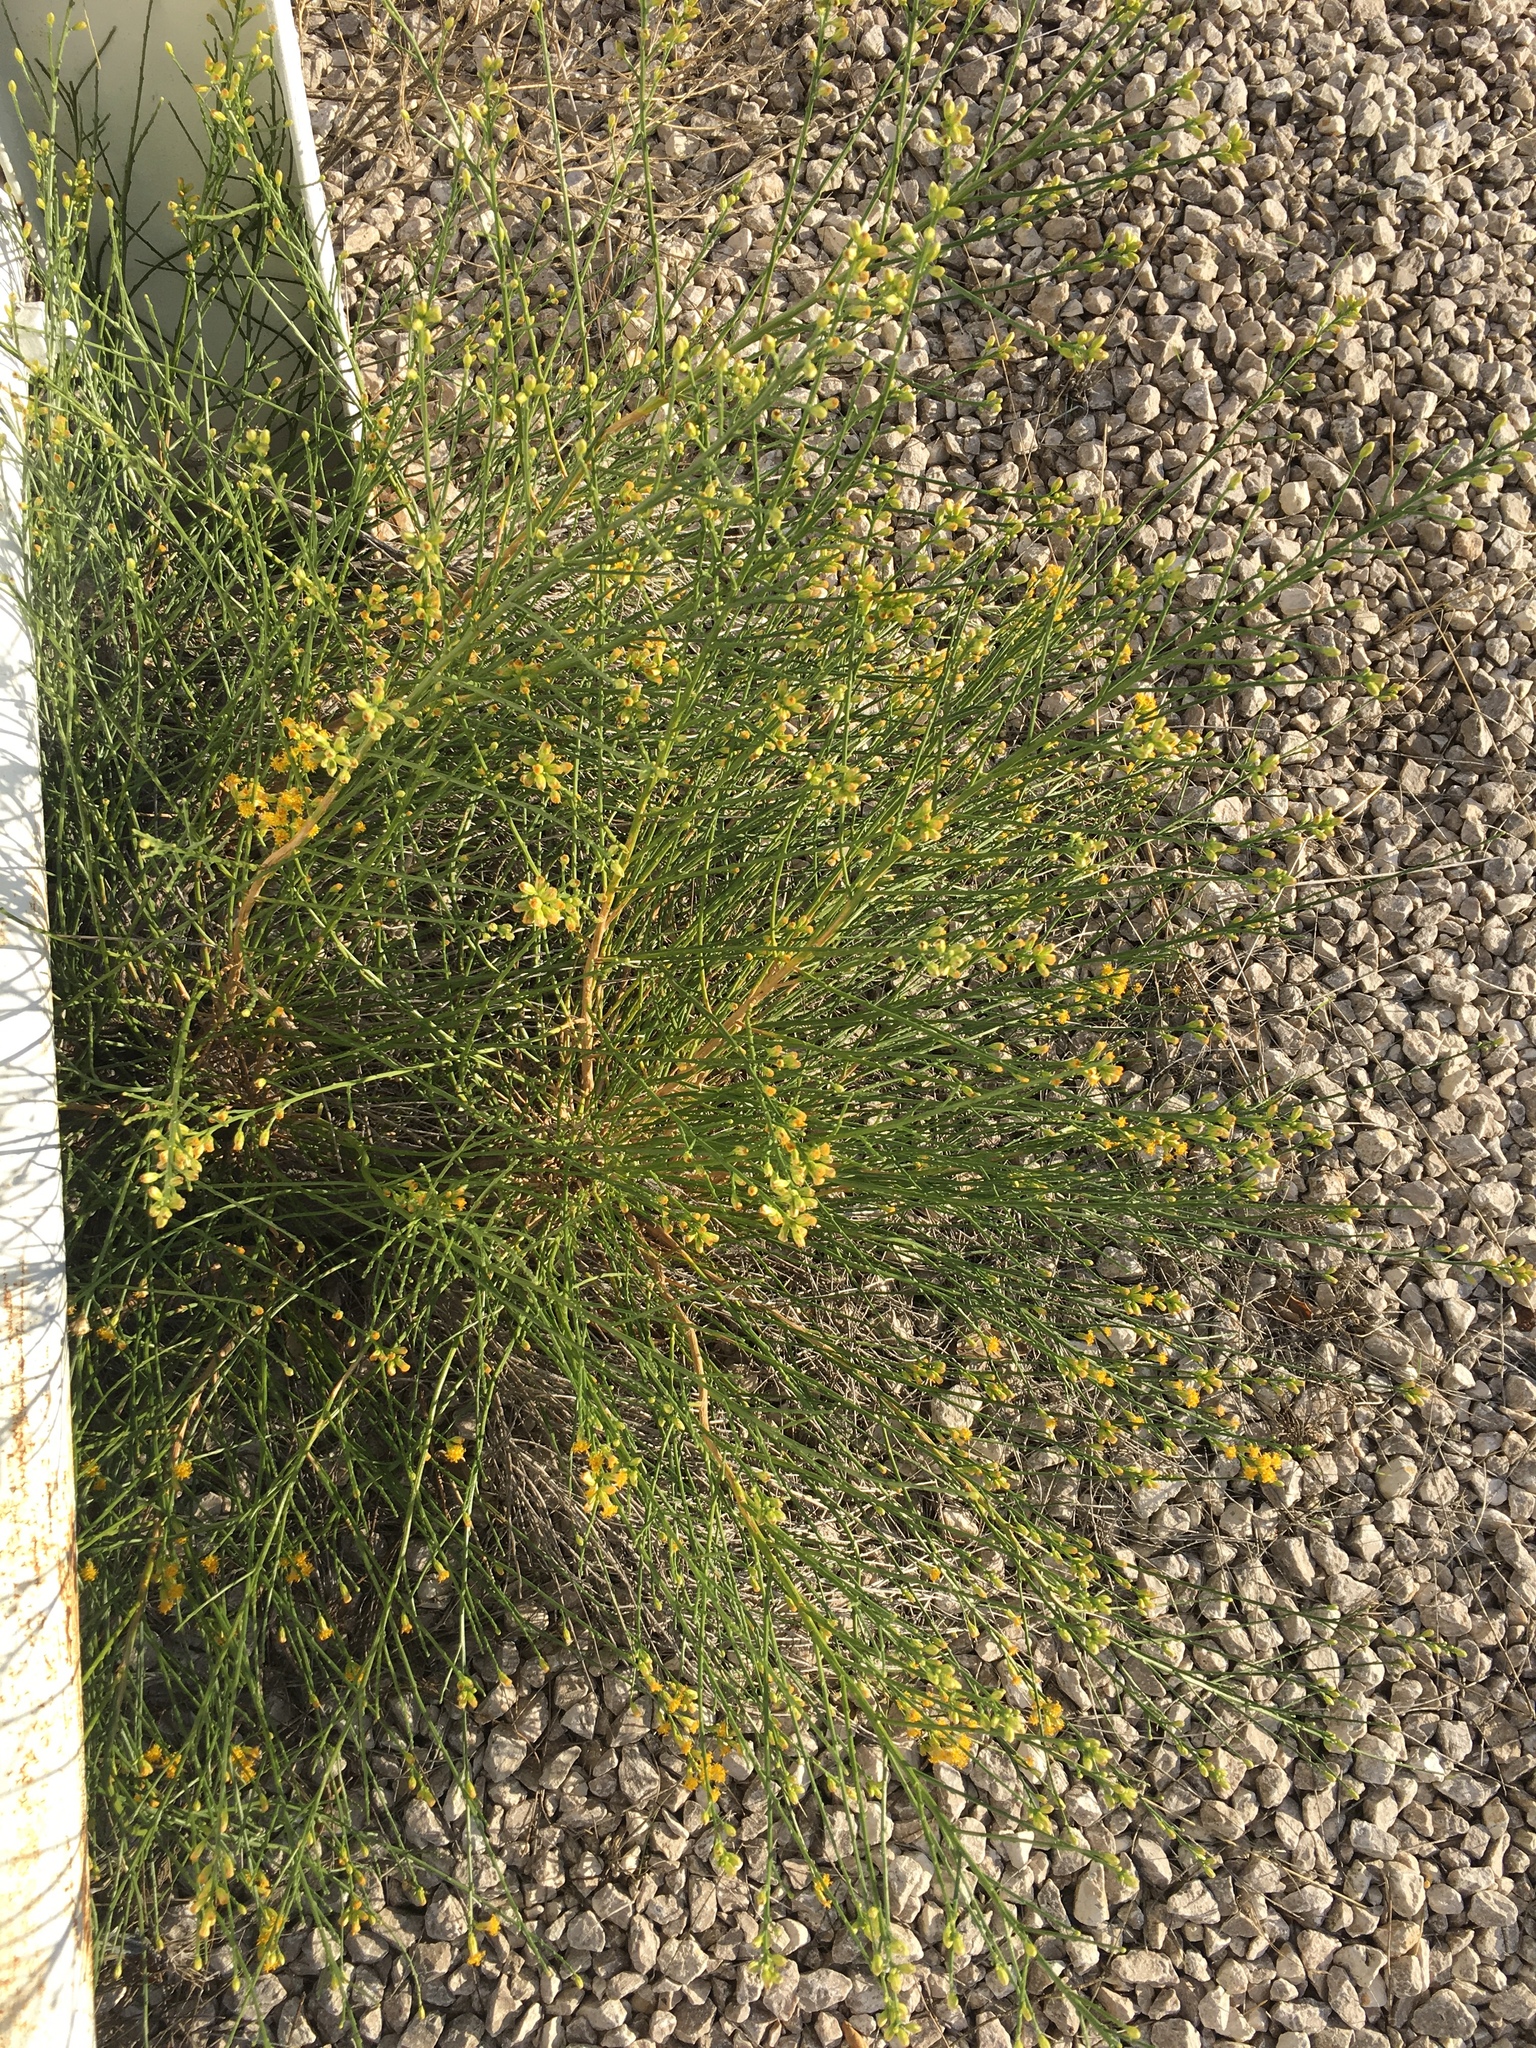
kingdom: Plantae
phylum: Tracheophyta
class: Magnoliopsida
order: Asterales
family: Asteraceae
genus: Lepidospartum
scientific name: Lepidospartum squamatum
